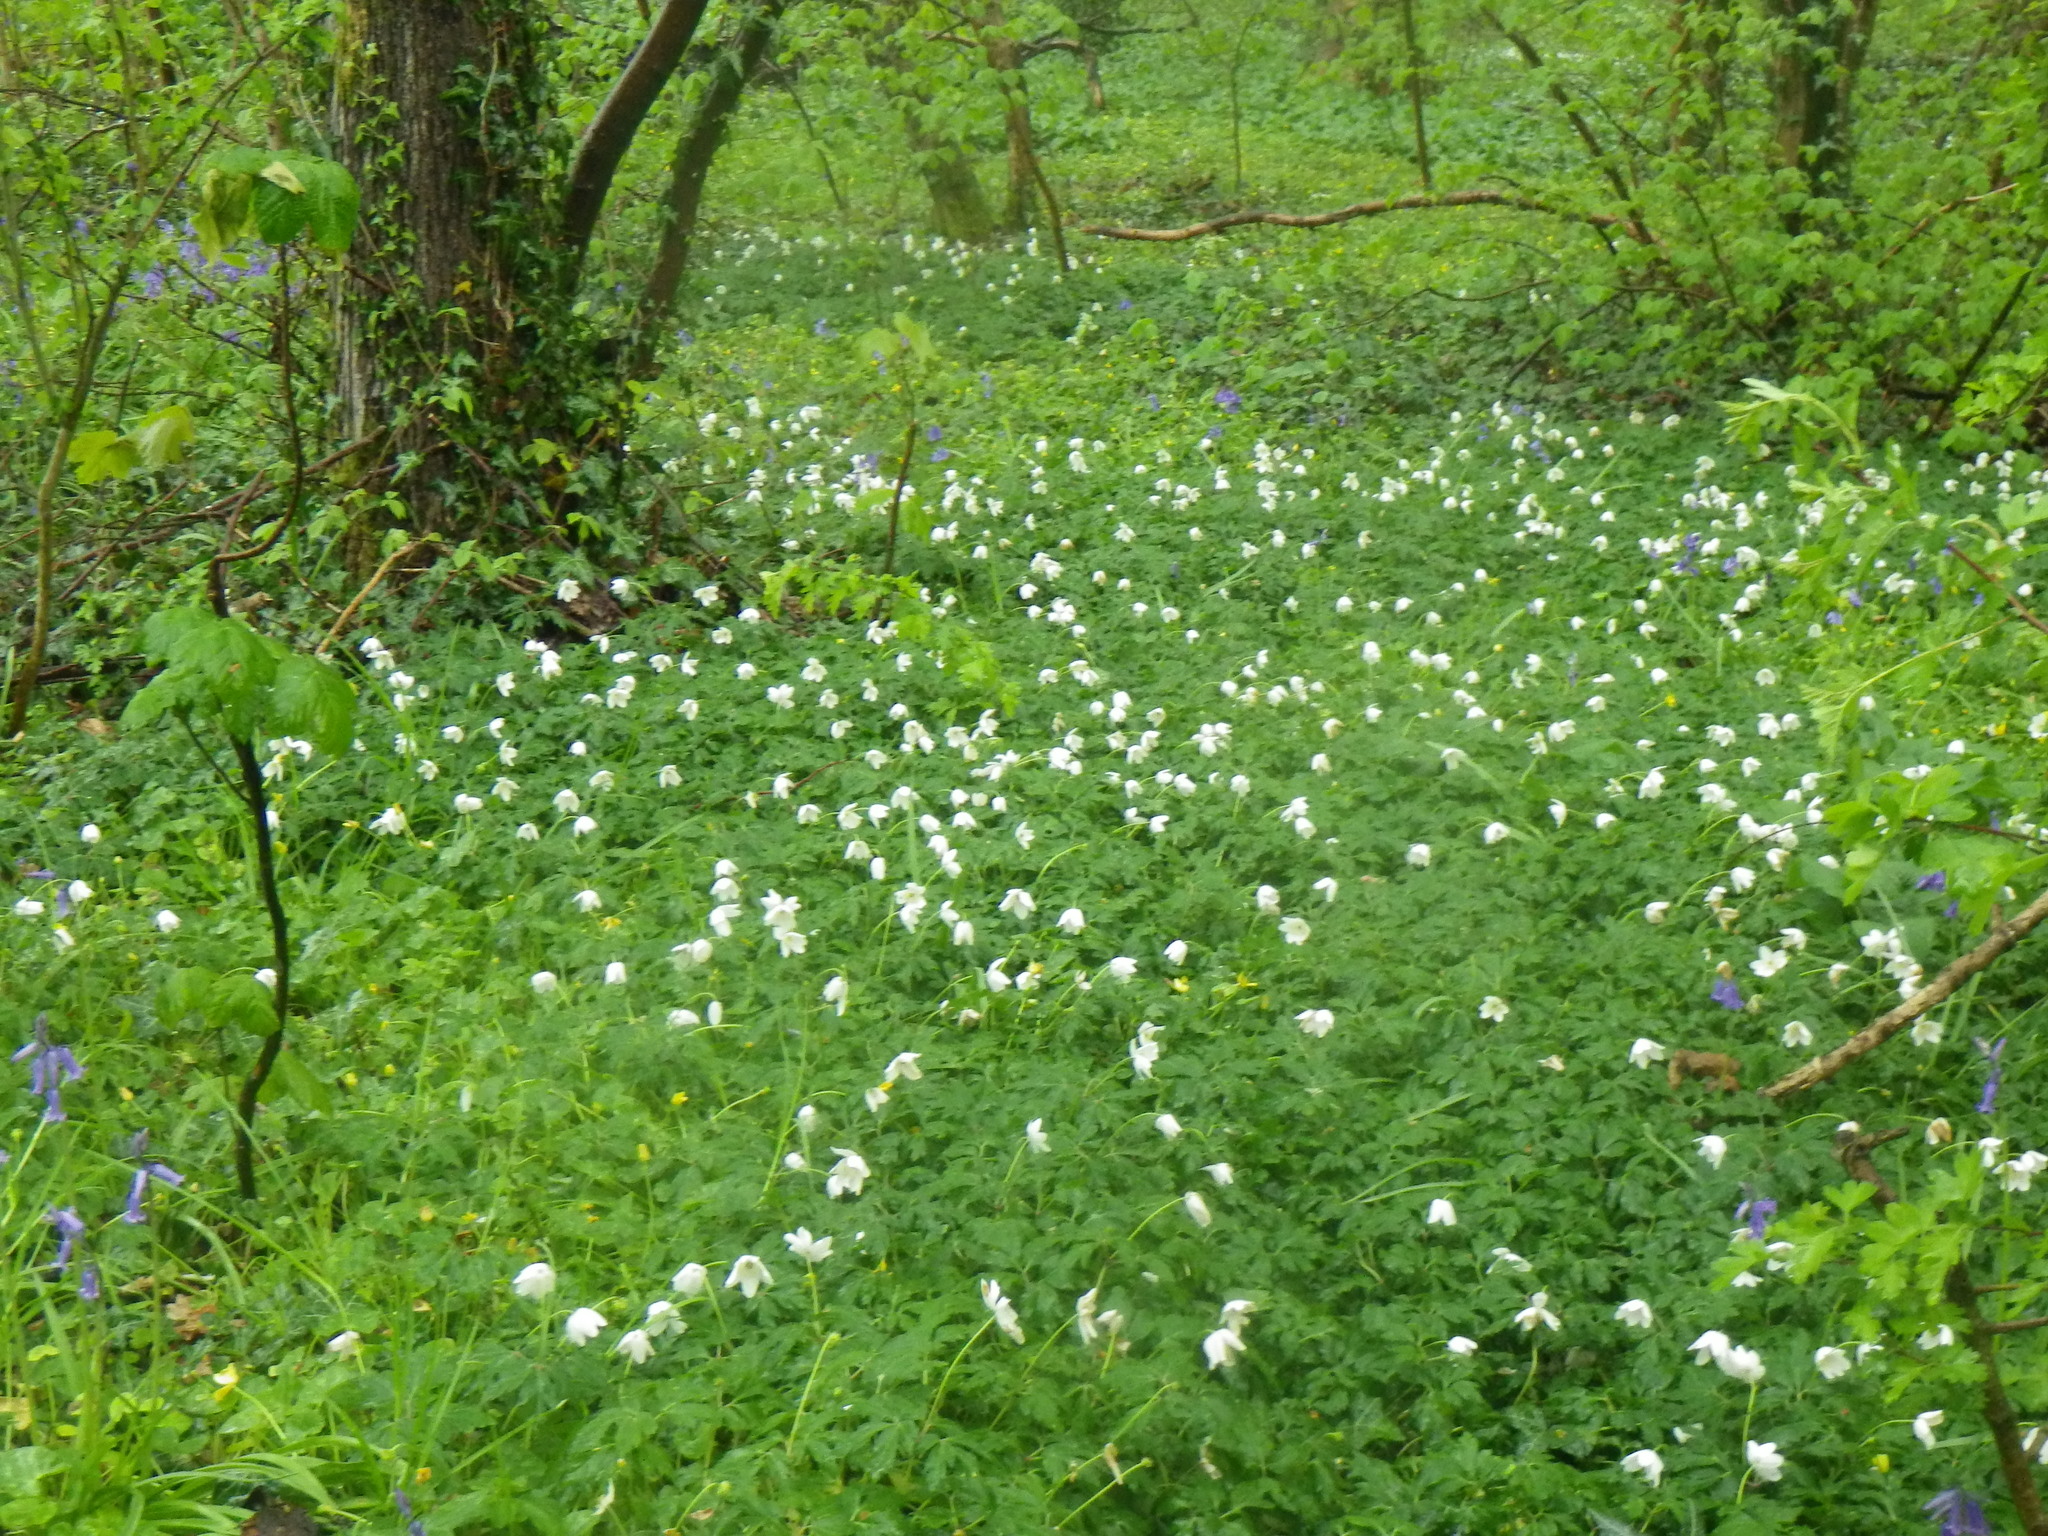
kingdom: Plantae
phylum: Tracheophyta
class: Magnoliopsida
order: Ranunculales
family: Ranunculaceae
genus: Anemone
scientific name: Anemone nemorosa
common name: Wood anemone
